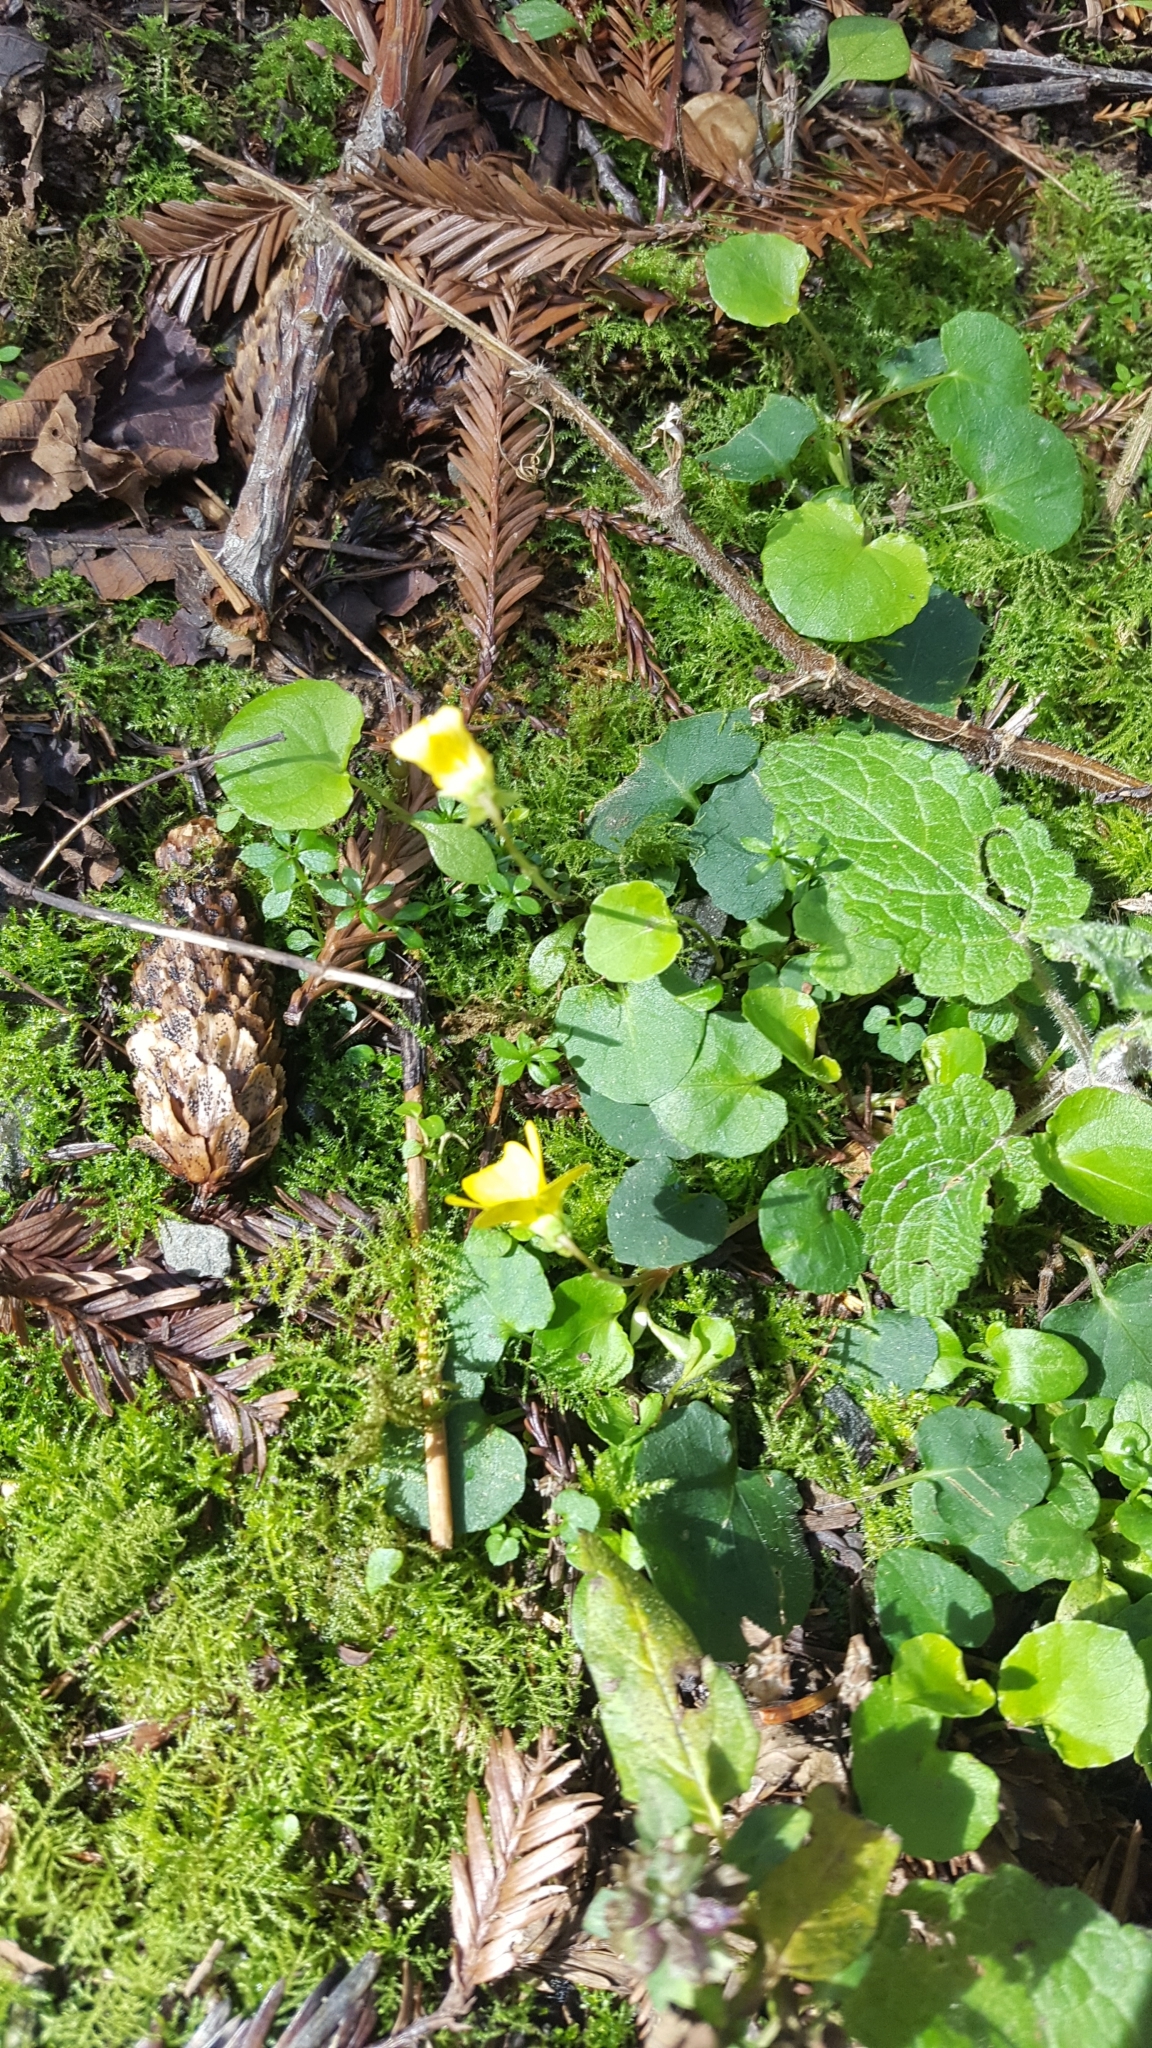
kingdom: Plantae
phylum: Tracheophyta
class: Magnoliopsida
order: Malpighiales
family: Violaceae
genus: Viola
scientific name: Viola sempervirens
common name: Evergreen violet
